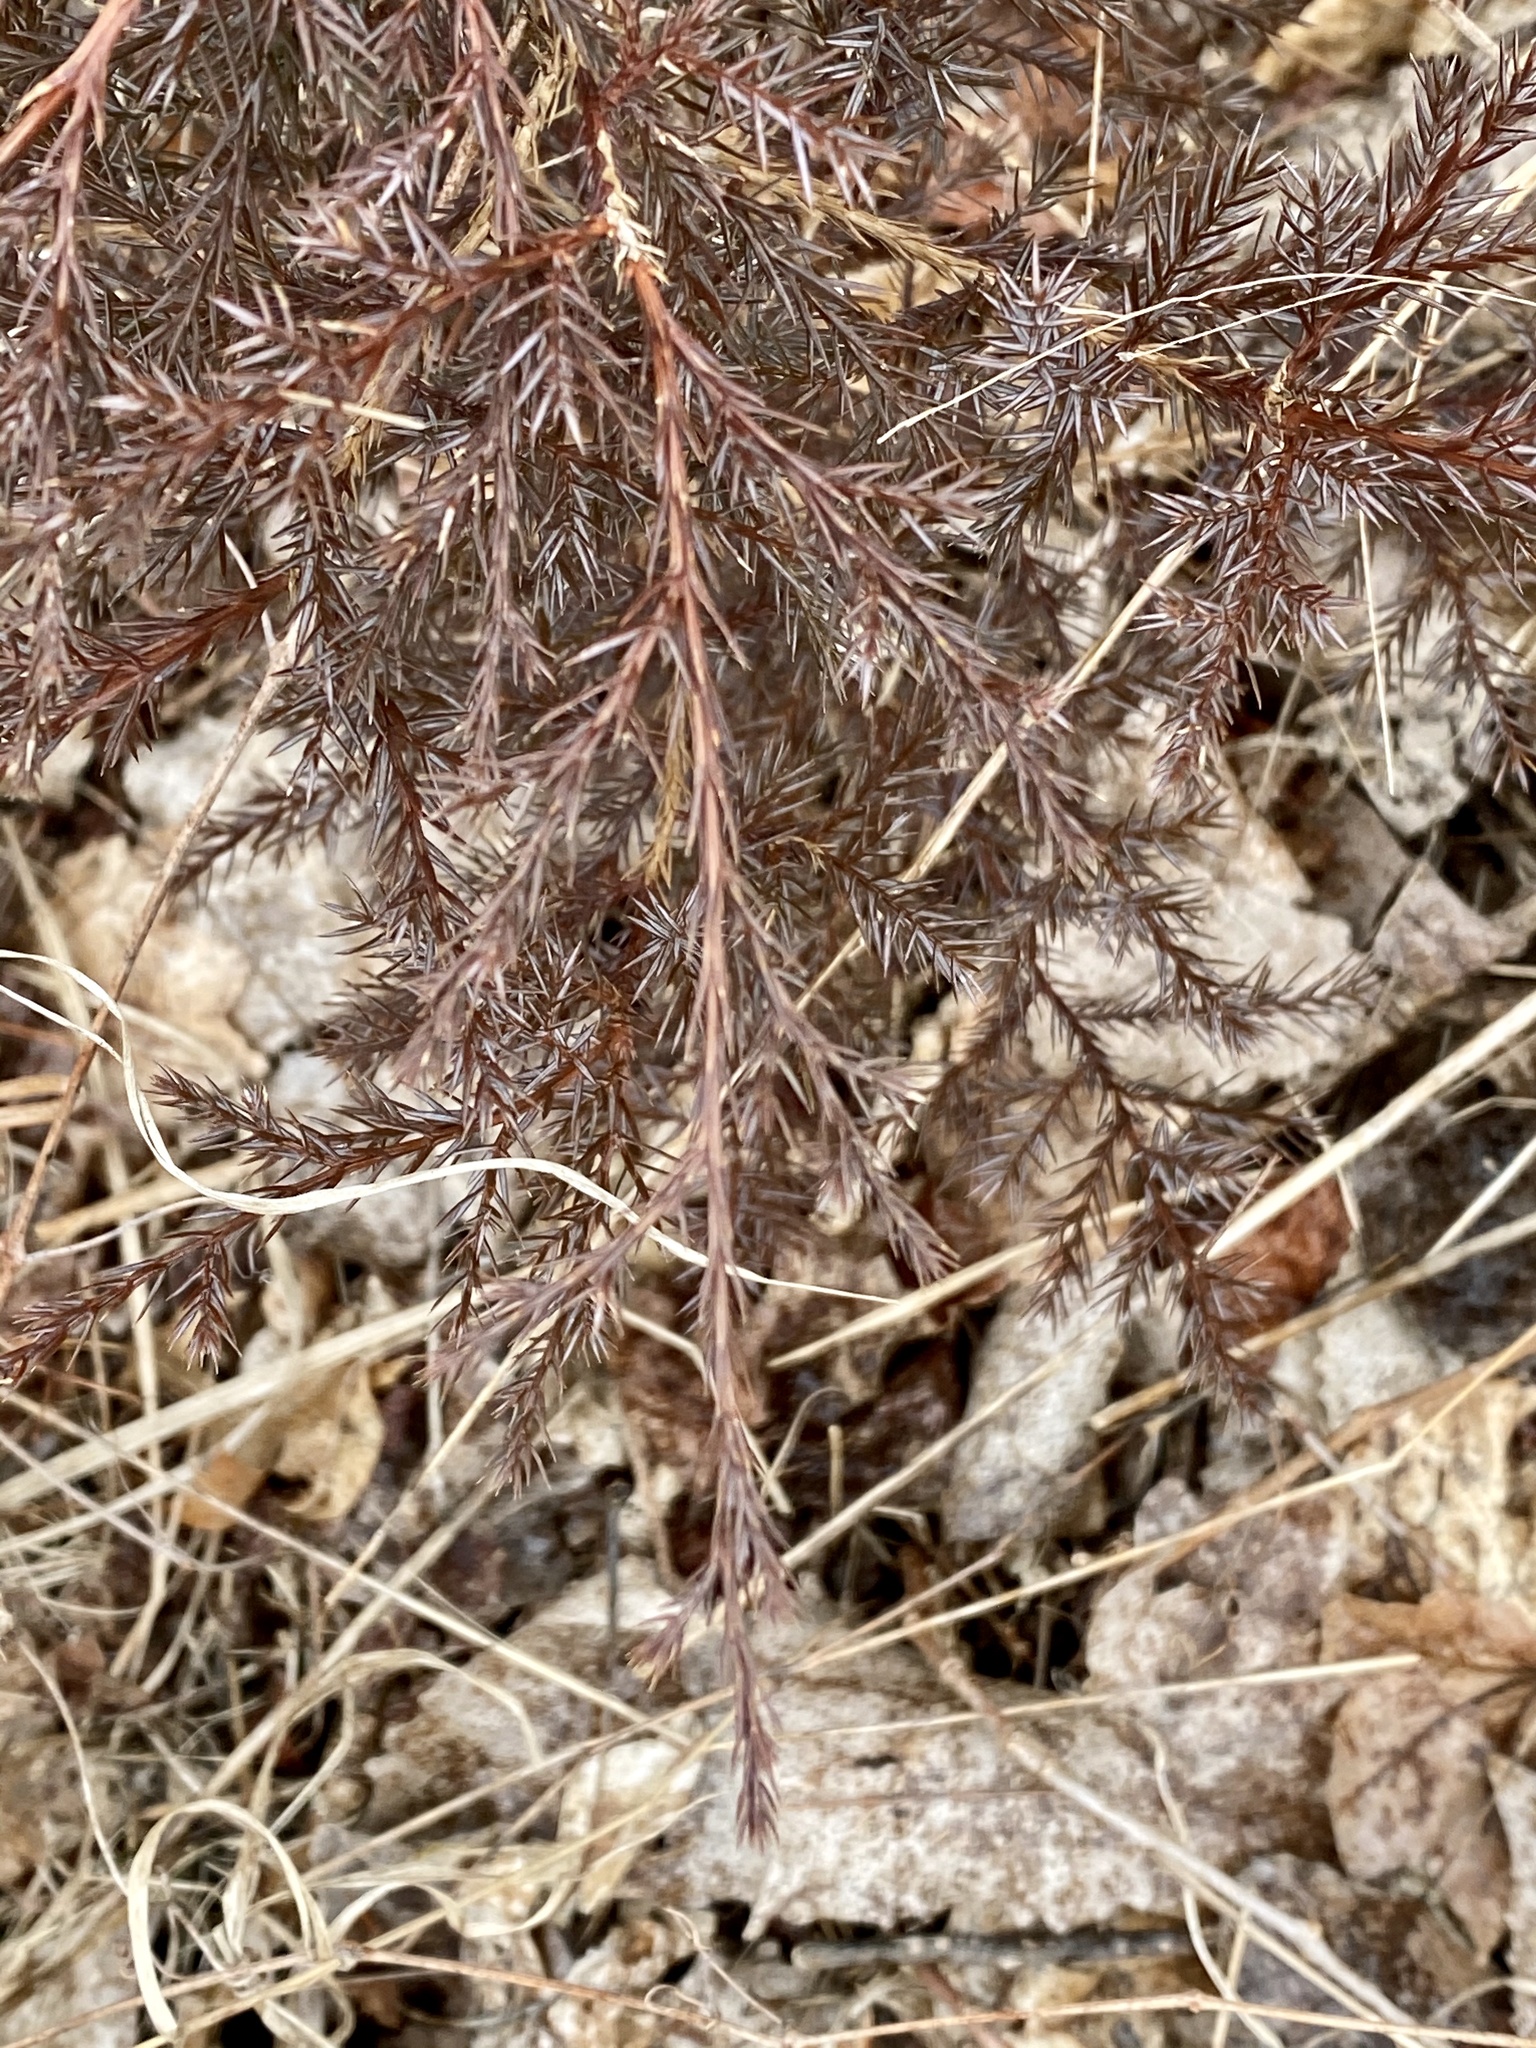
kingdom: Plantae
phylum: Tracheophyta
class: Pinopsida
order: Pinales
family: Cupressaceae
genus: Juniperus
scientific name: Juniperus virginiana
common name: Red juniper
